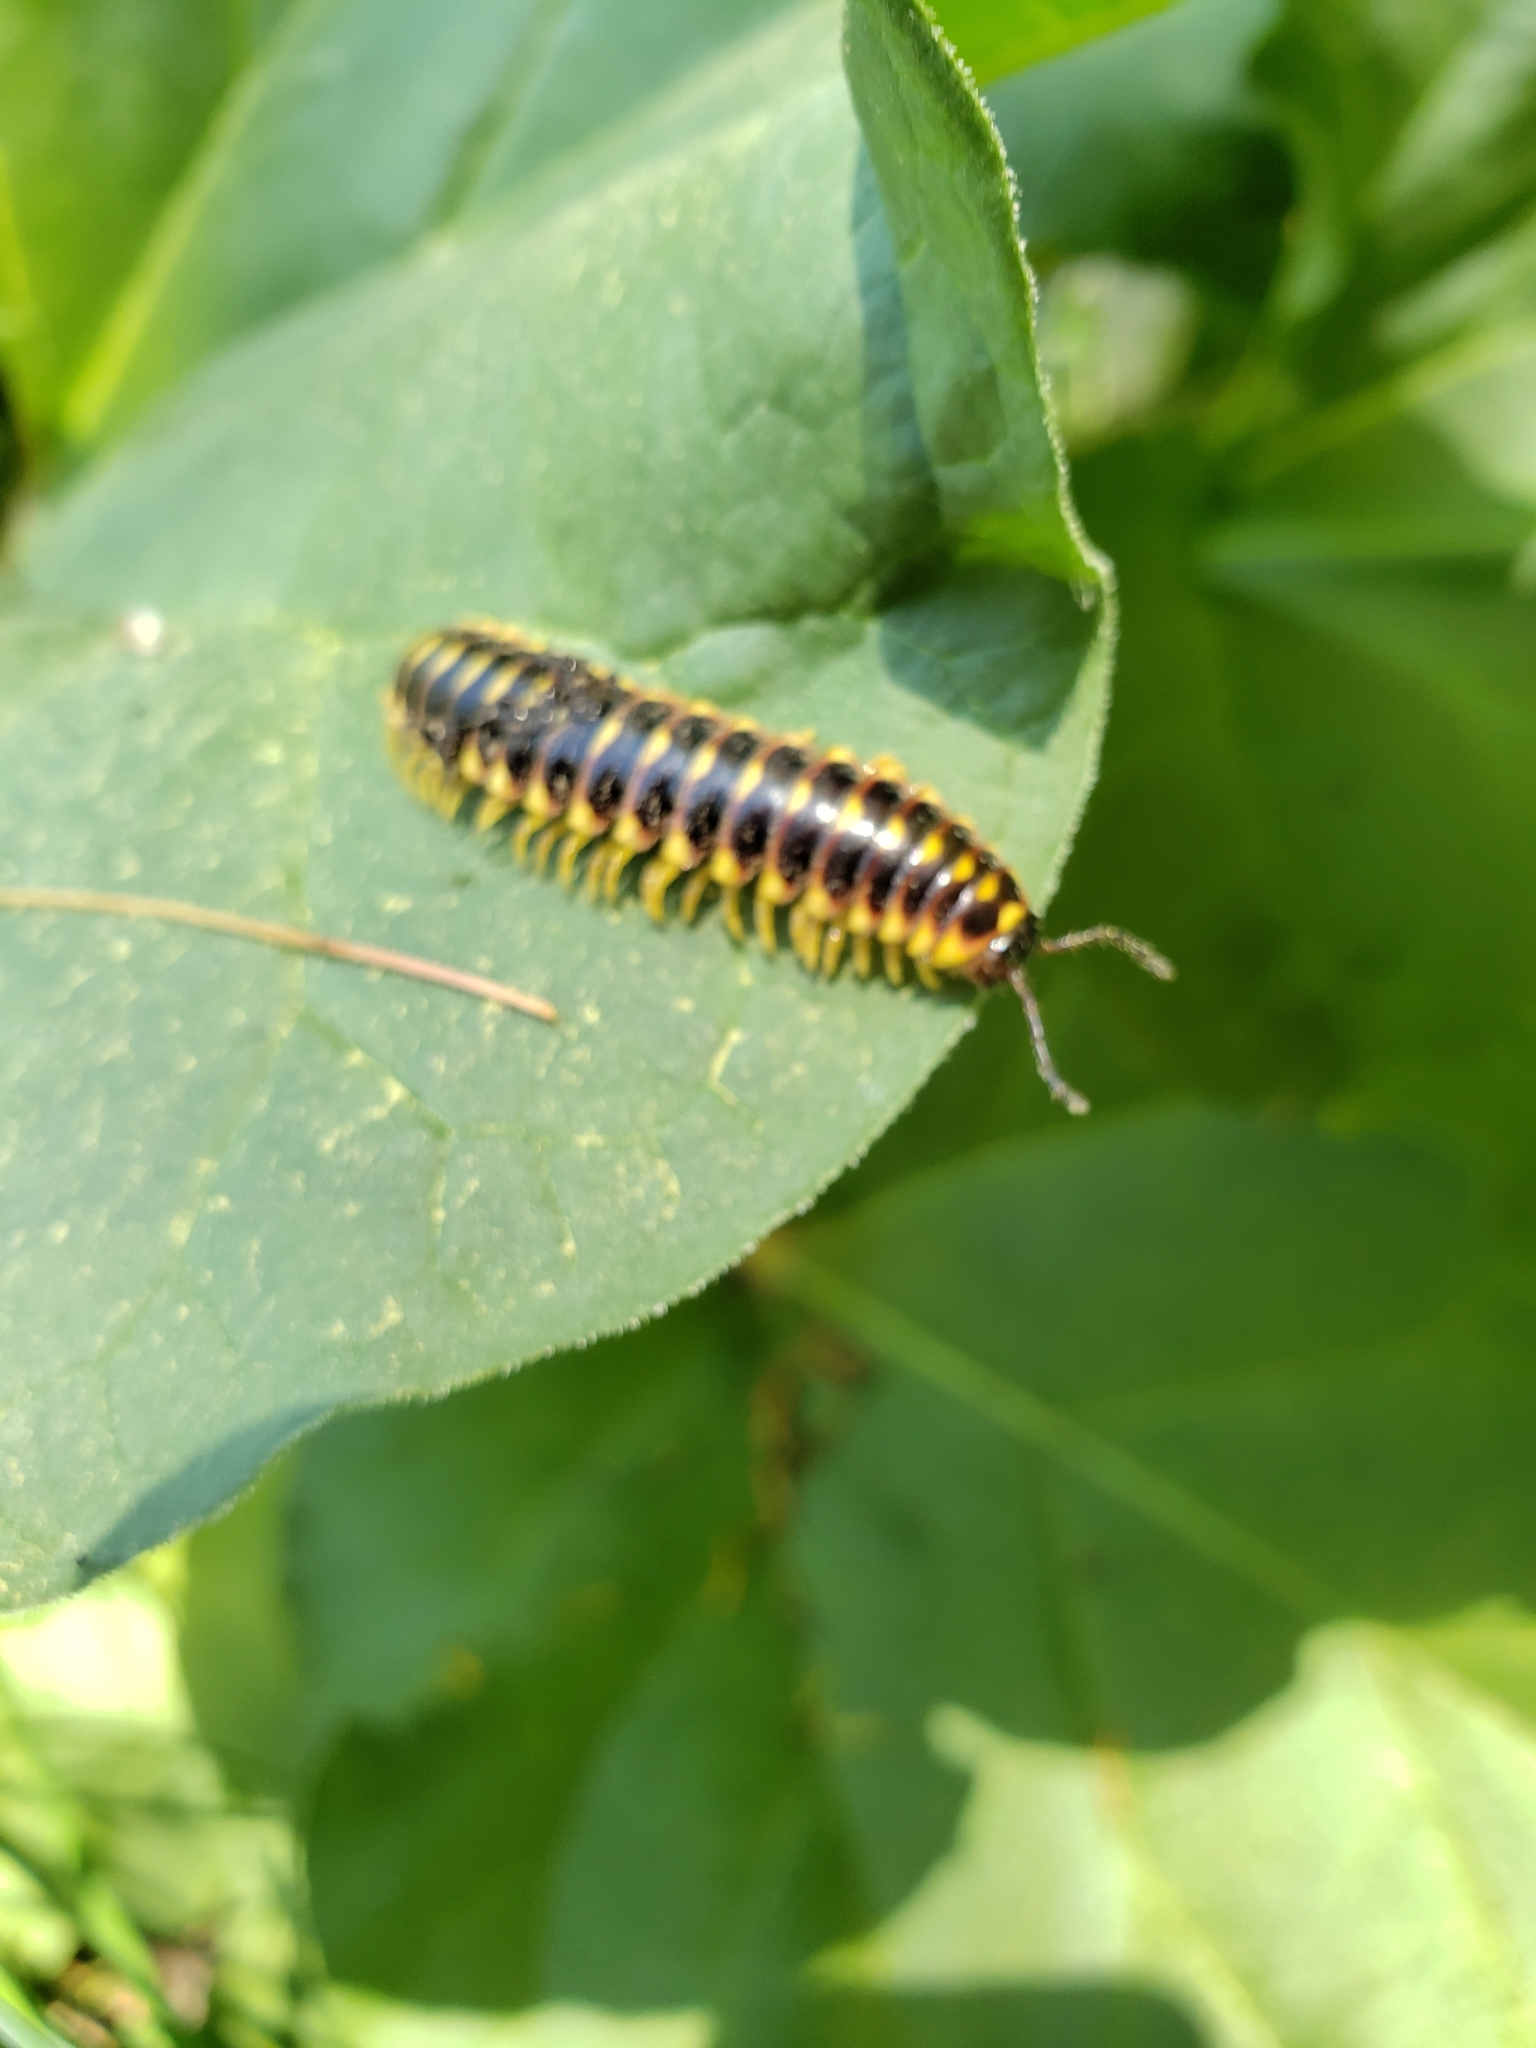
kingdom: Animalia
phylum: Arthropoda
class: Diplopoda
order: Polydesmida
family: Xystodesmidae
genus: Rudiloria
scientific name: Rudiloria trimaculata
